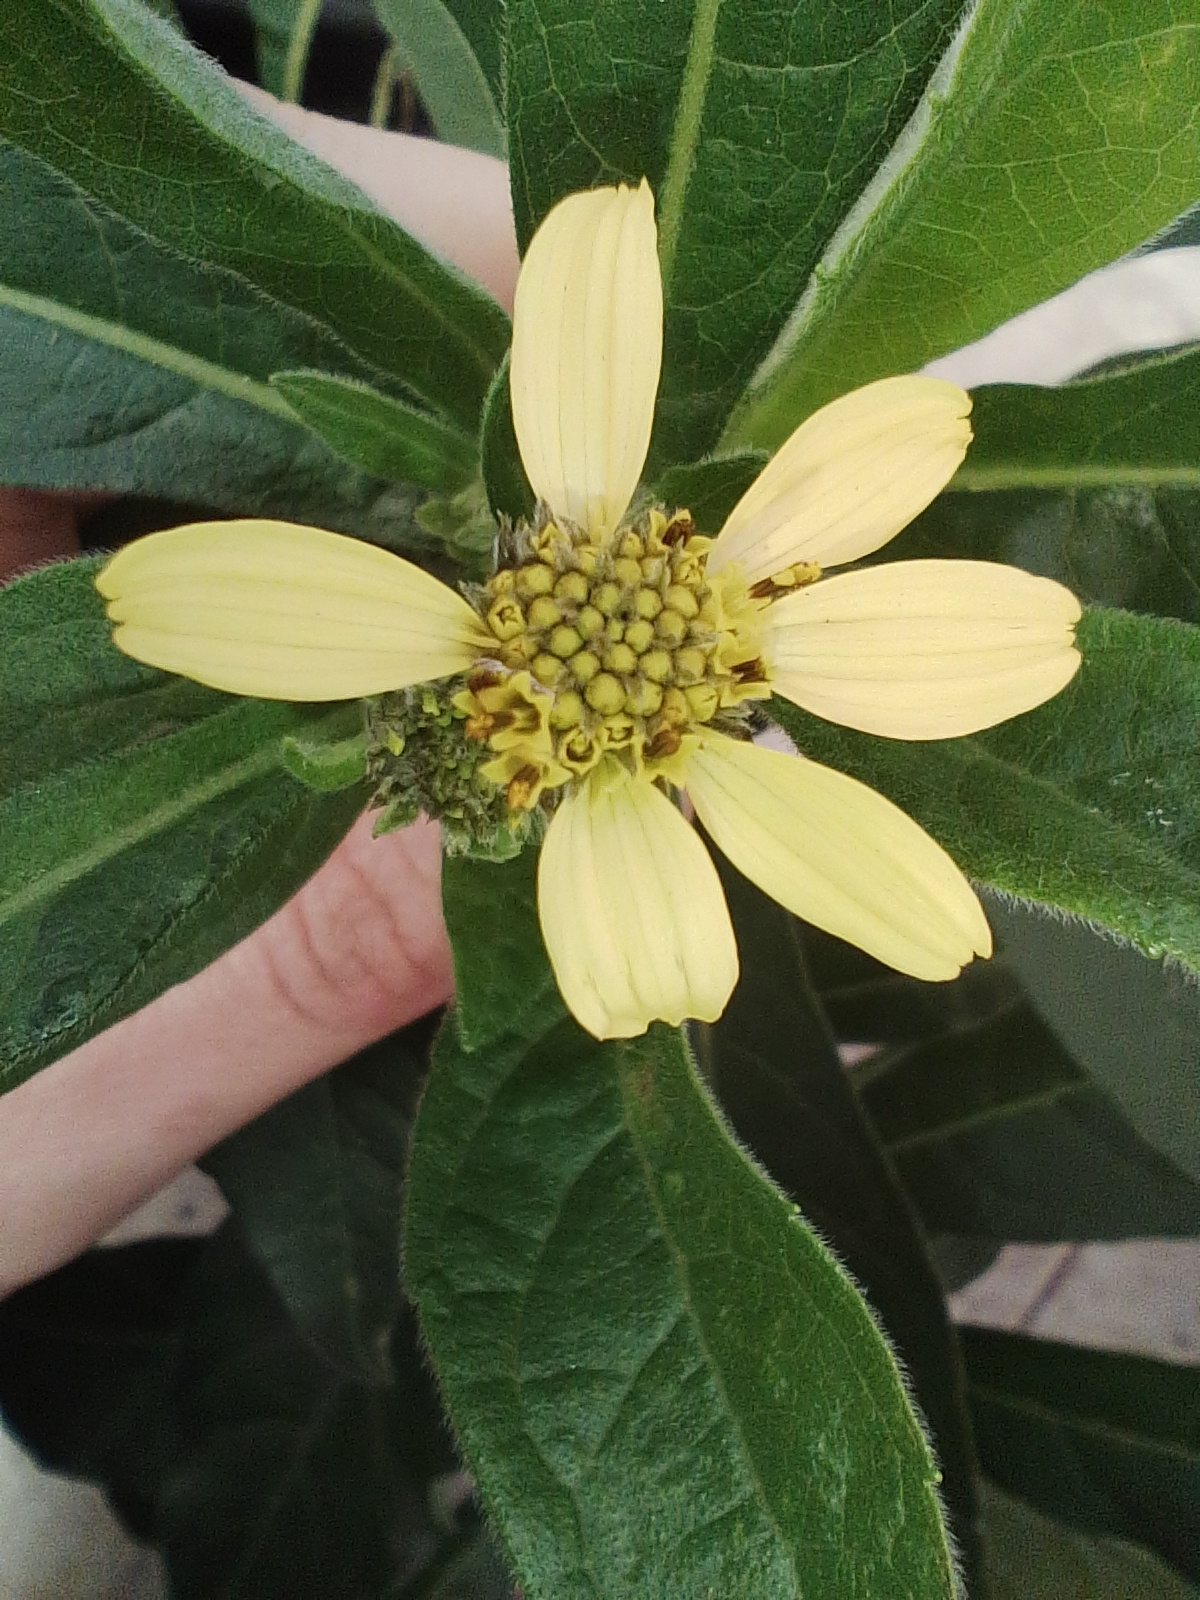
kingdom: Plantae
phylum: Tracheophyta
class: Magnoliopsida
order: Asterales
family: Asteraceae
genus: Verbesina
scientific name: Verbesina subcordata
